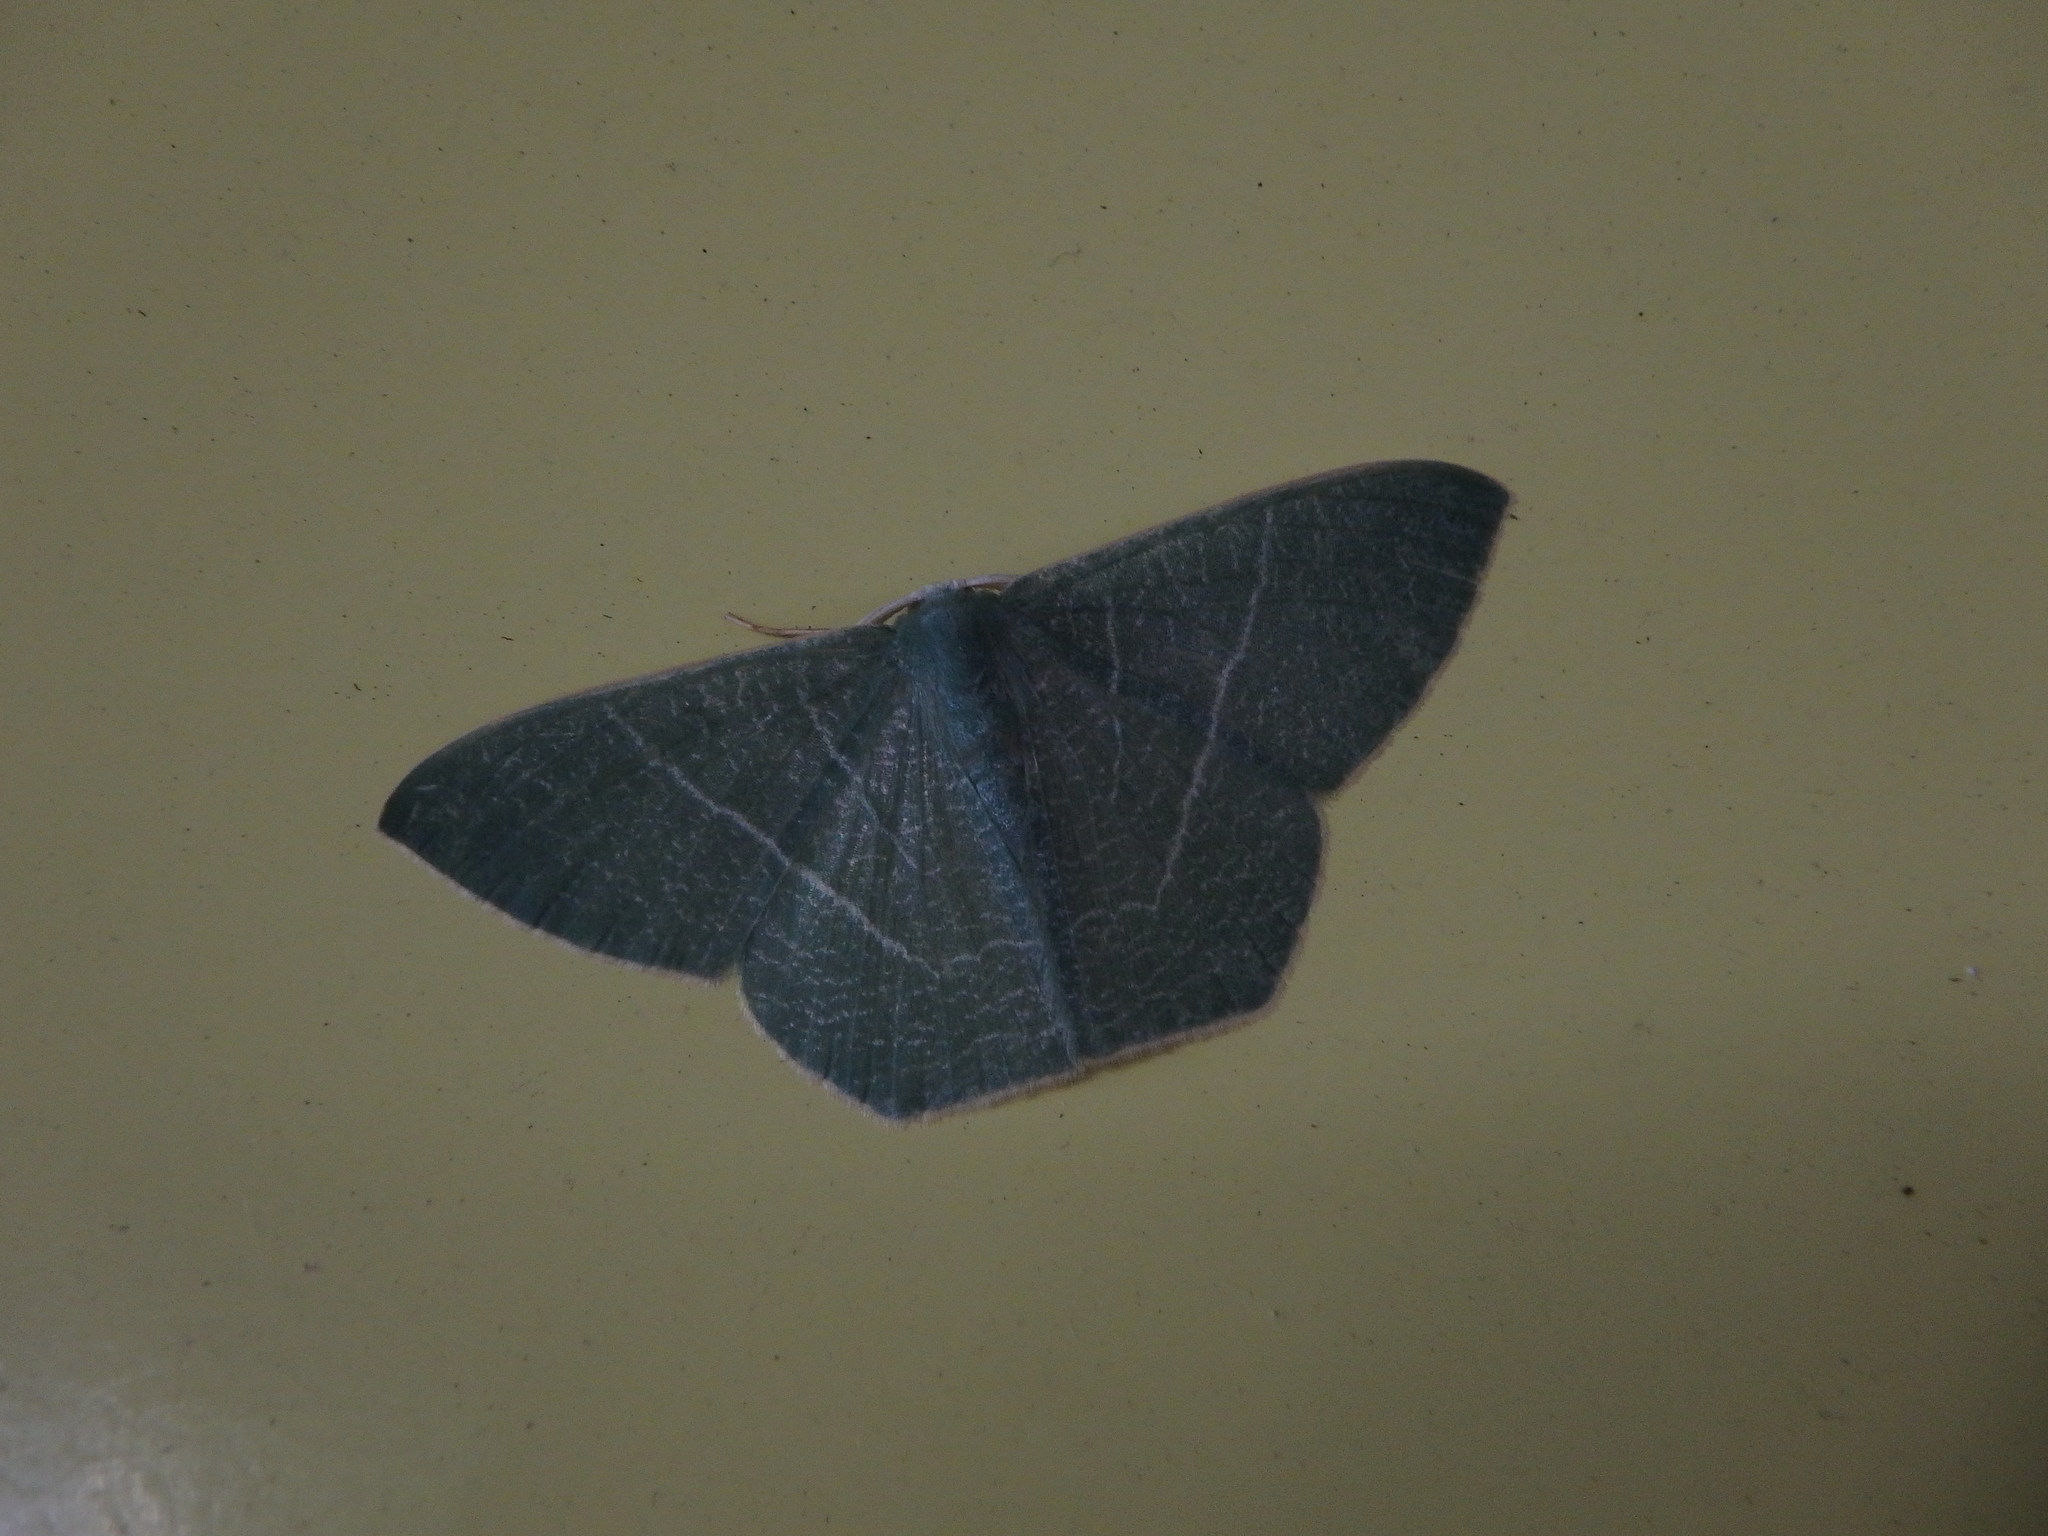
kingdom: Animalia
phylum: Arthropoda
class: Insecta
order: Lepidoptera
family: Geometridae
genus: Pelagodes
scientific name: Pelagodes subquadraria
